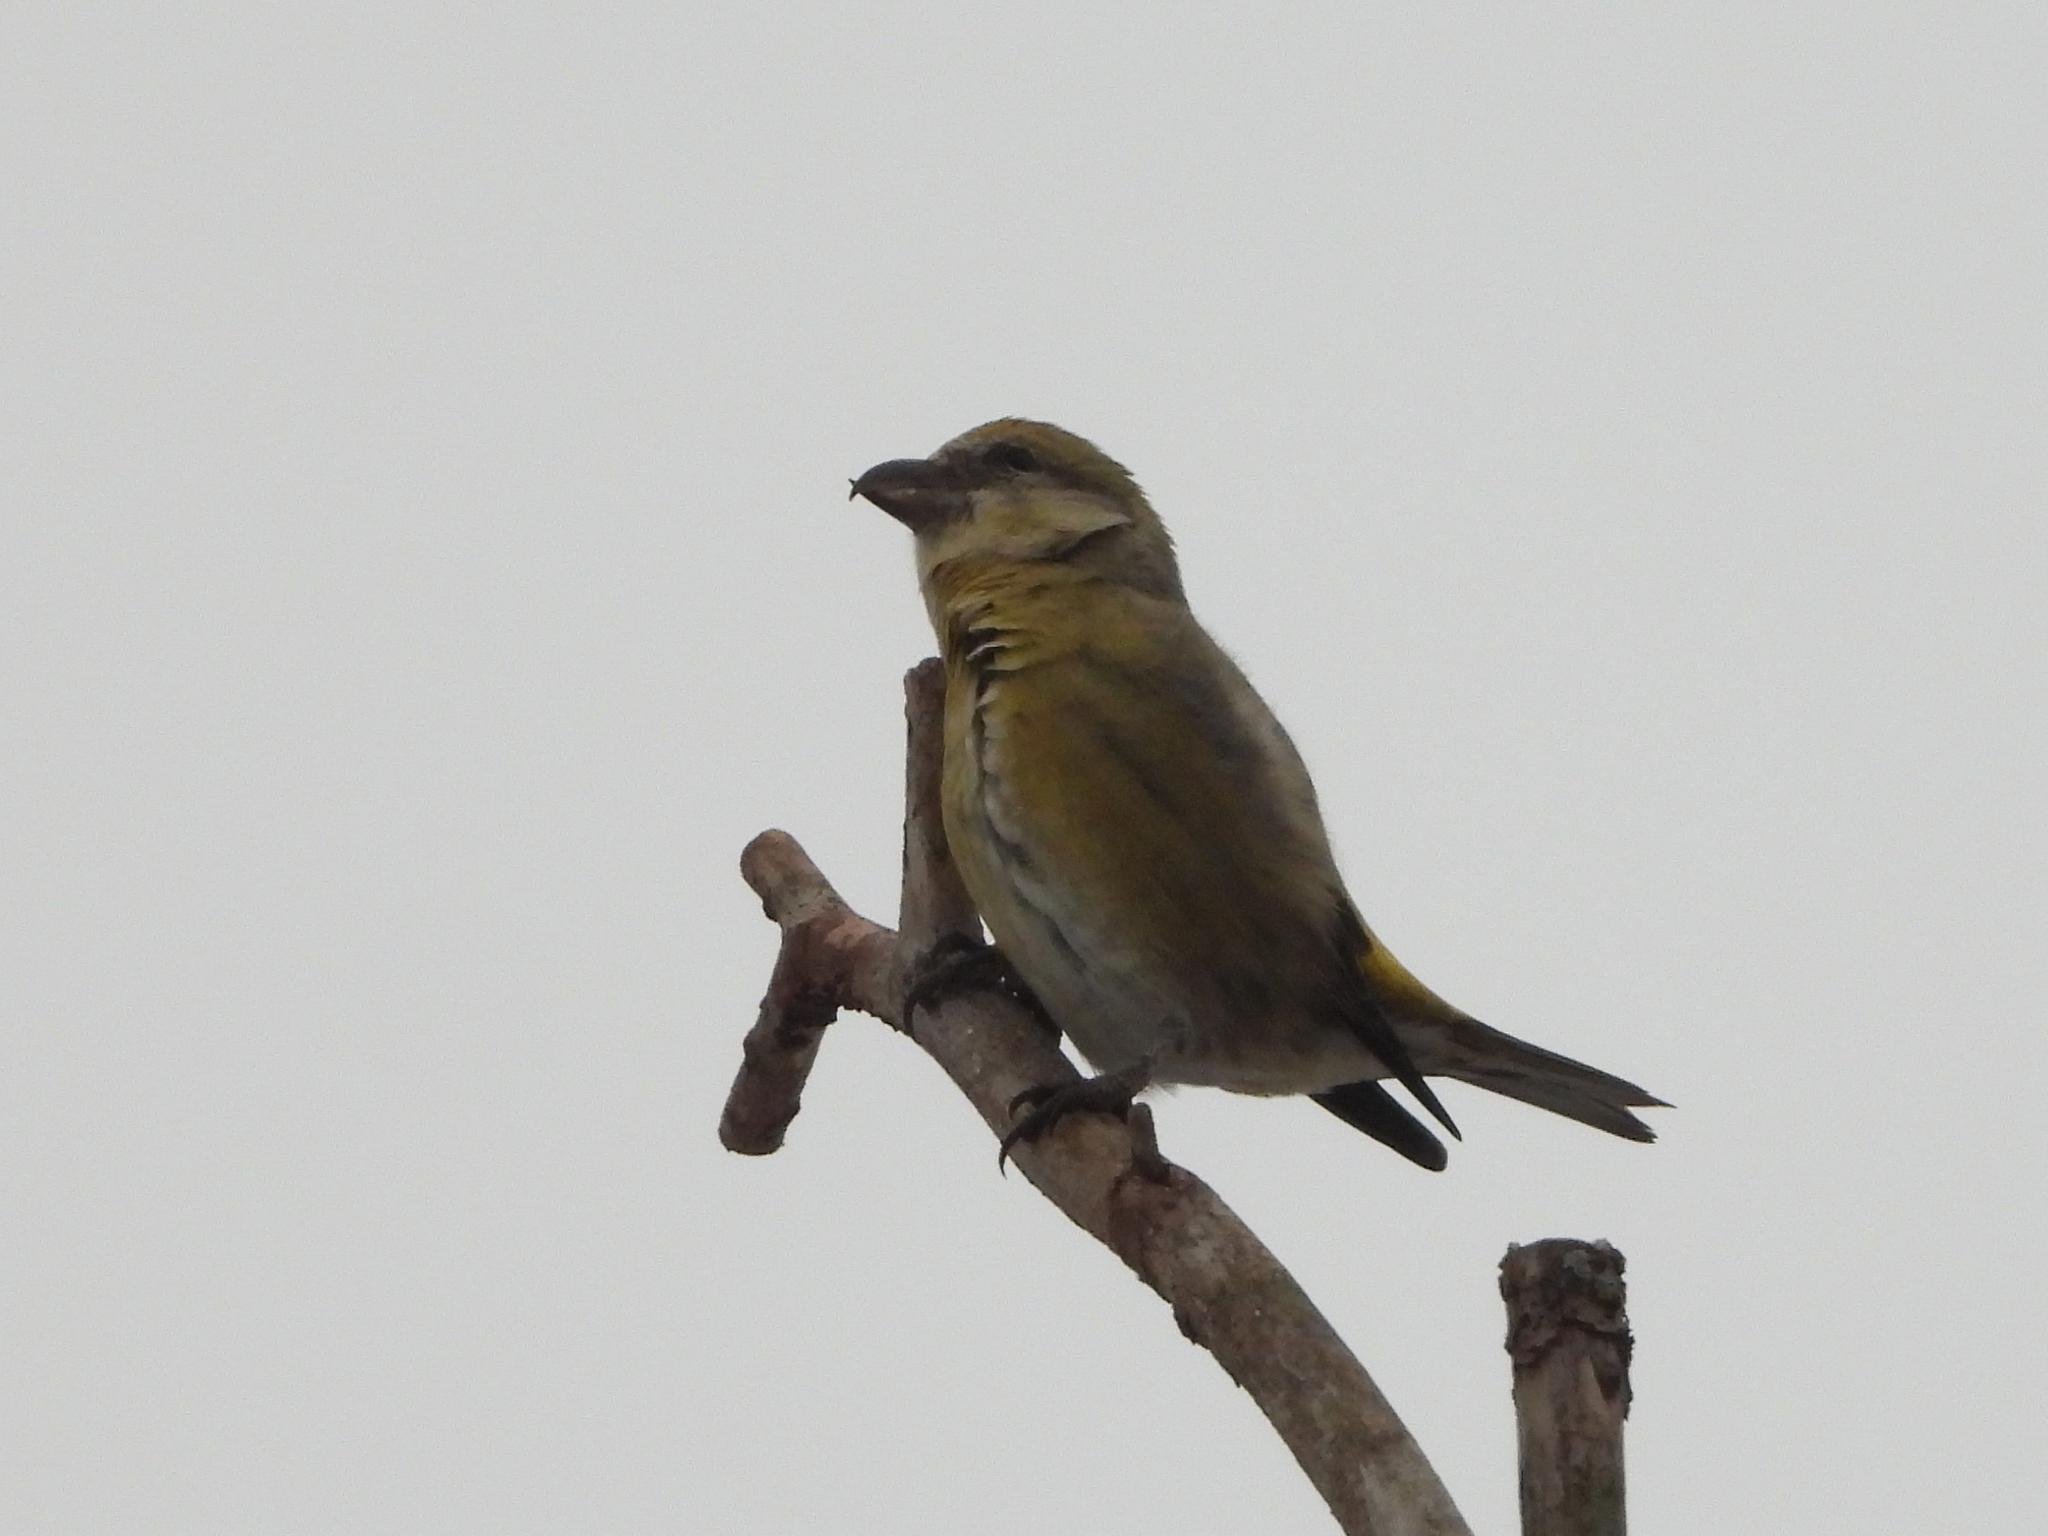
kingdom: Animalia
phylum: Chordata
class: Aves
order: Passeriformes
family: Fringillidae
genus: Loxia
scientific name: Loxia curvirostra
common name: Red crossbill
